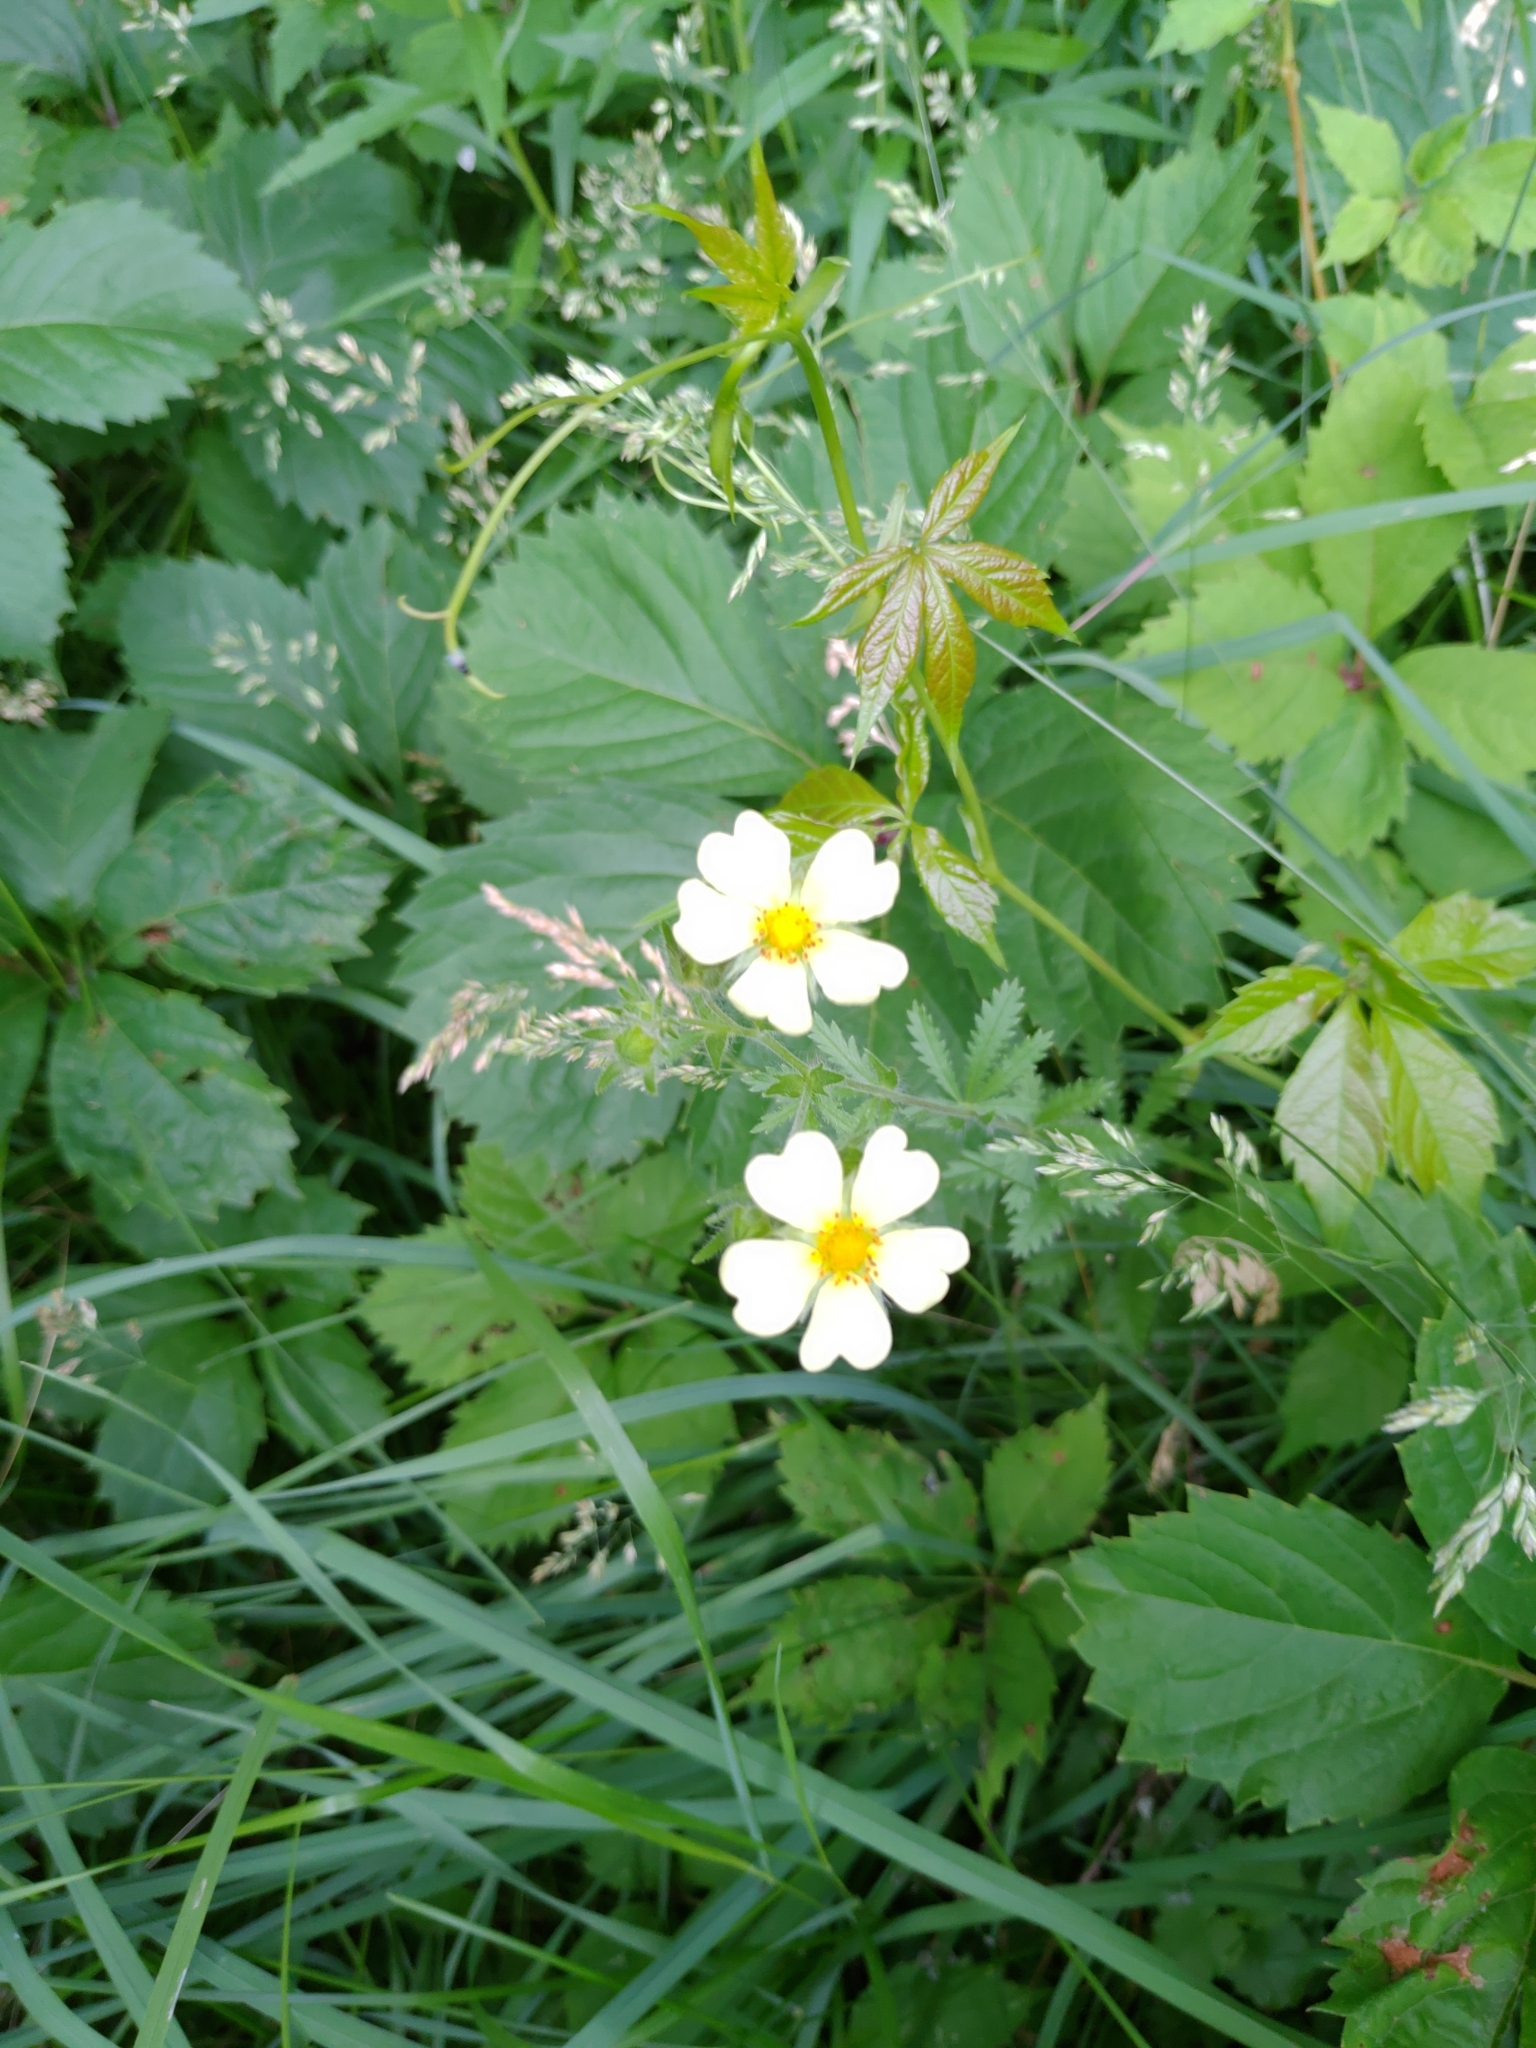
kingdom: Plantae
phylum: Tracheophyta
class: Magnoliopsida
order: Rosales
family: Rosaceae
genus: Potentilla
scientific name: Potentilla recta
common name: Sulphur cinquefoil
